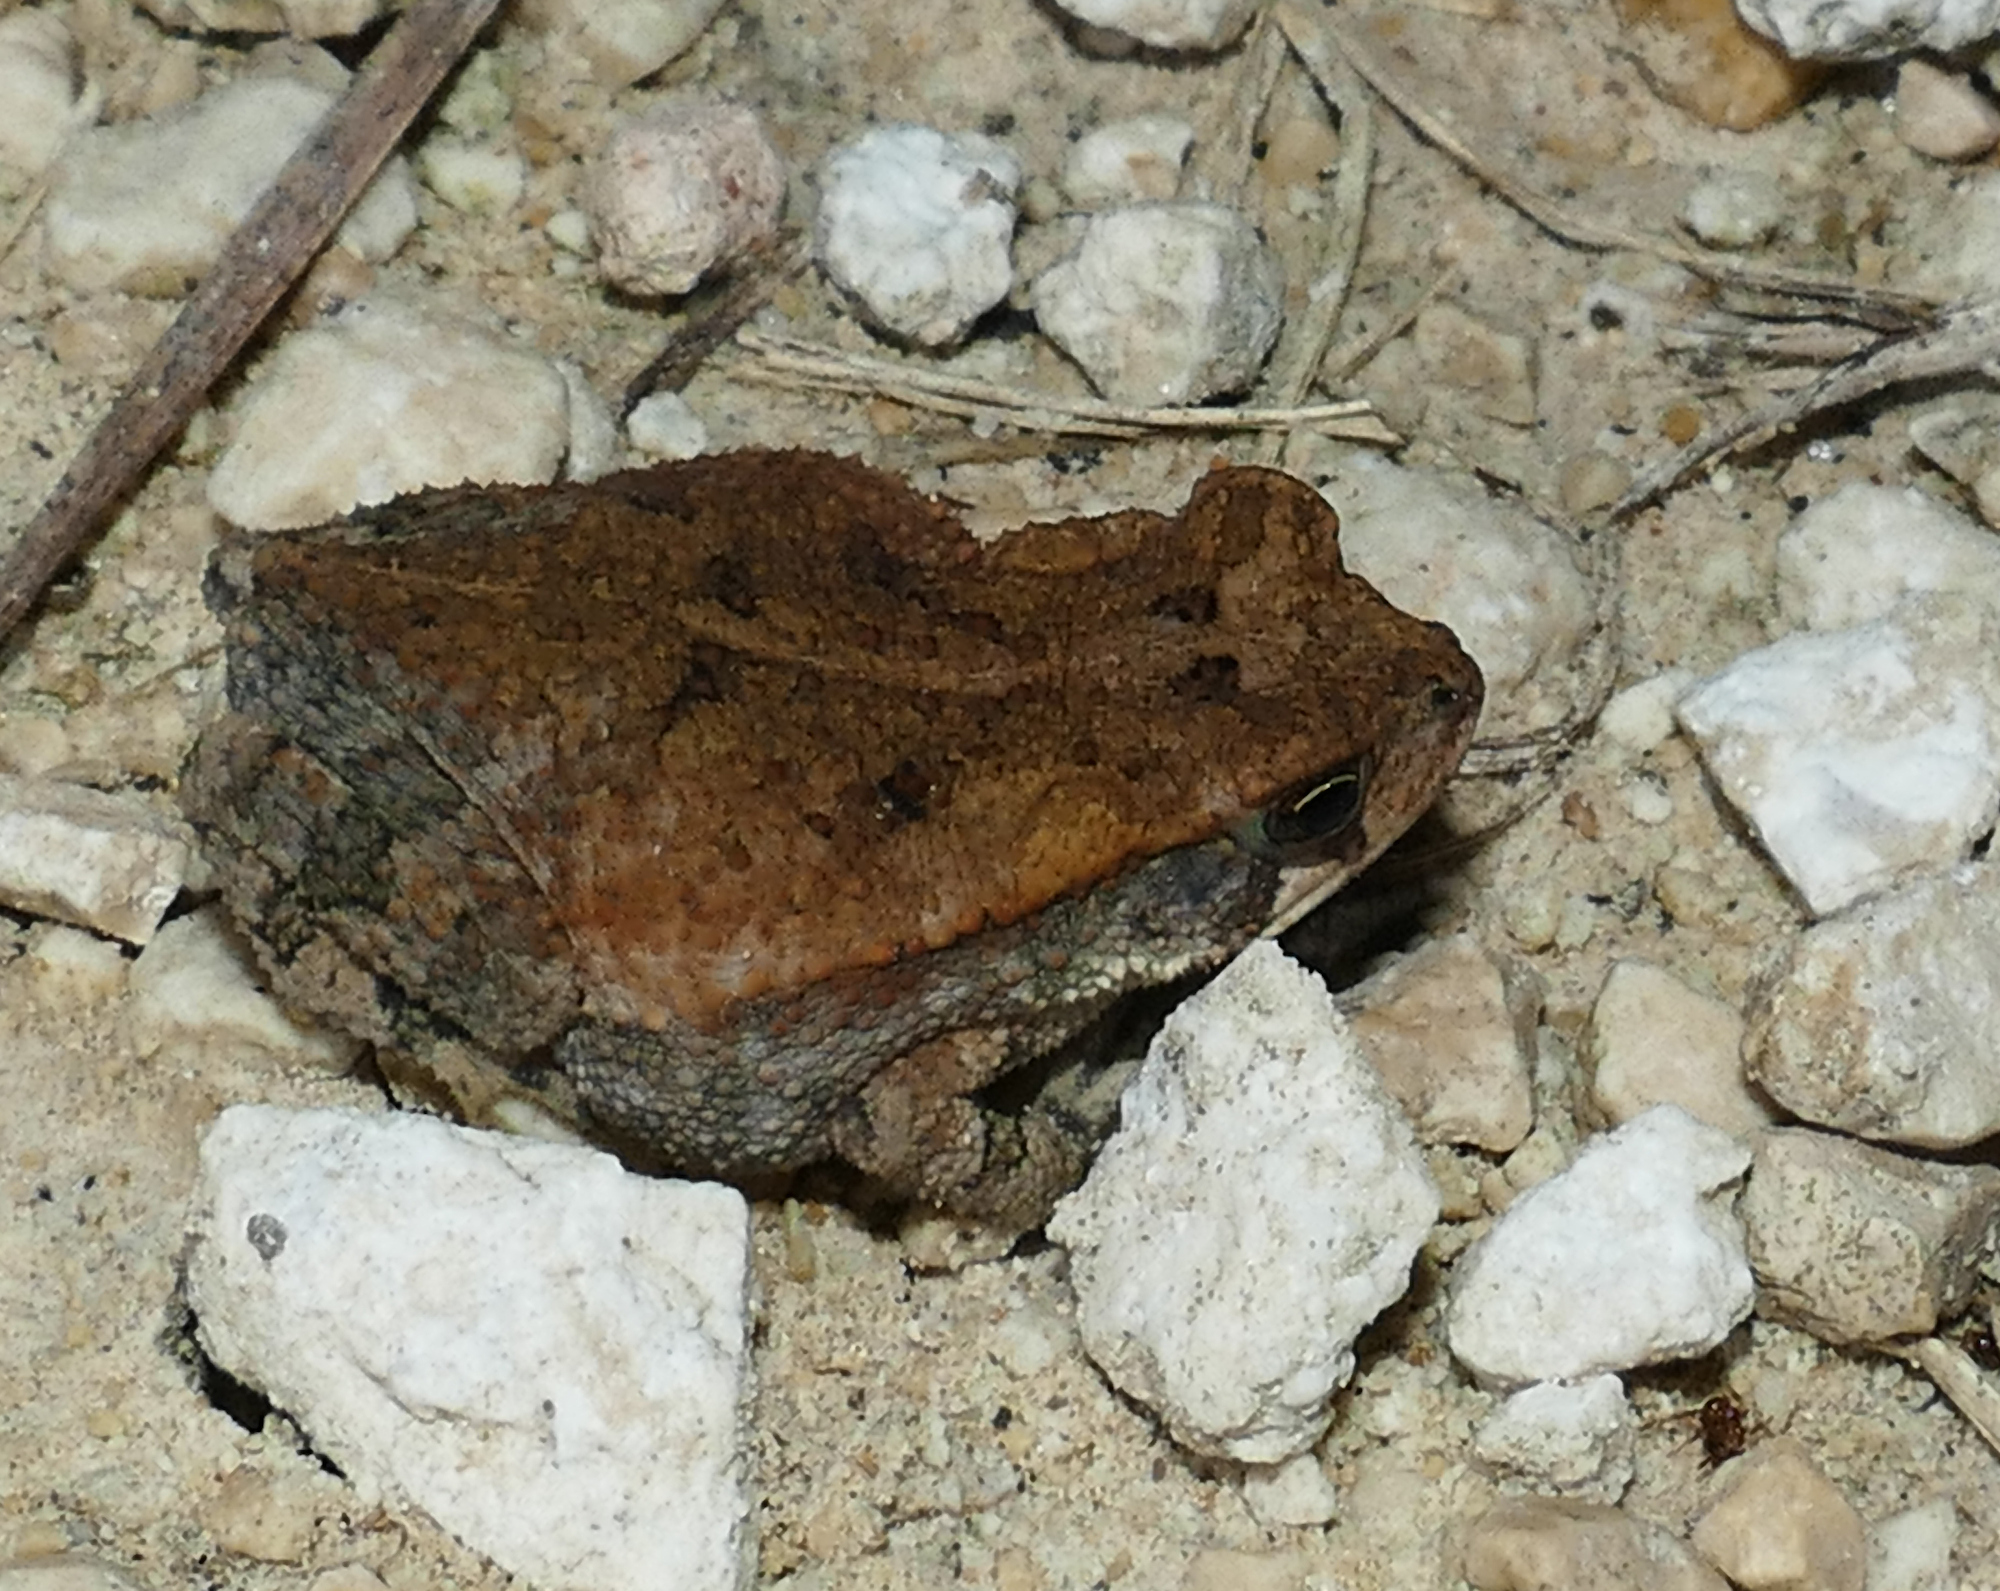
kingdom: Animalia
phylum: Chordata
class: Amphibia
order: Anura
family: Bufonidae
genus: Incilius
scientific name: Incilius nebulifer
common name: Gulf coast toad
